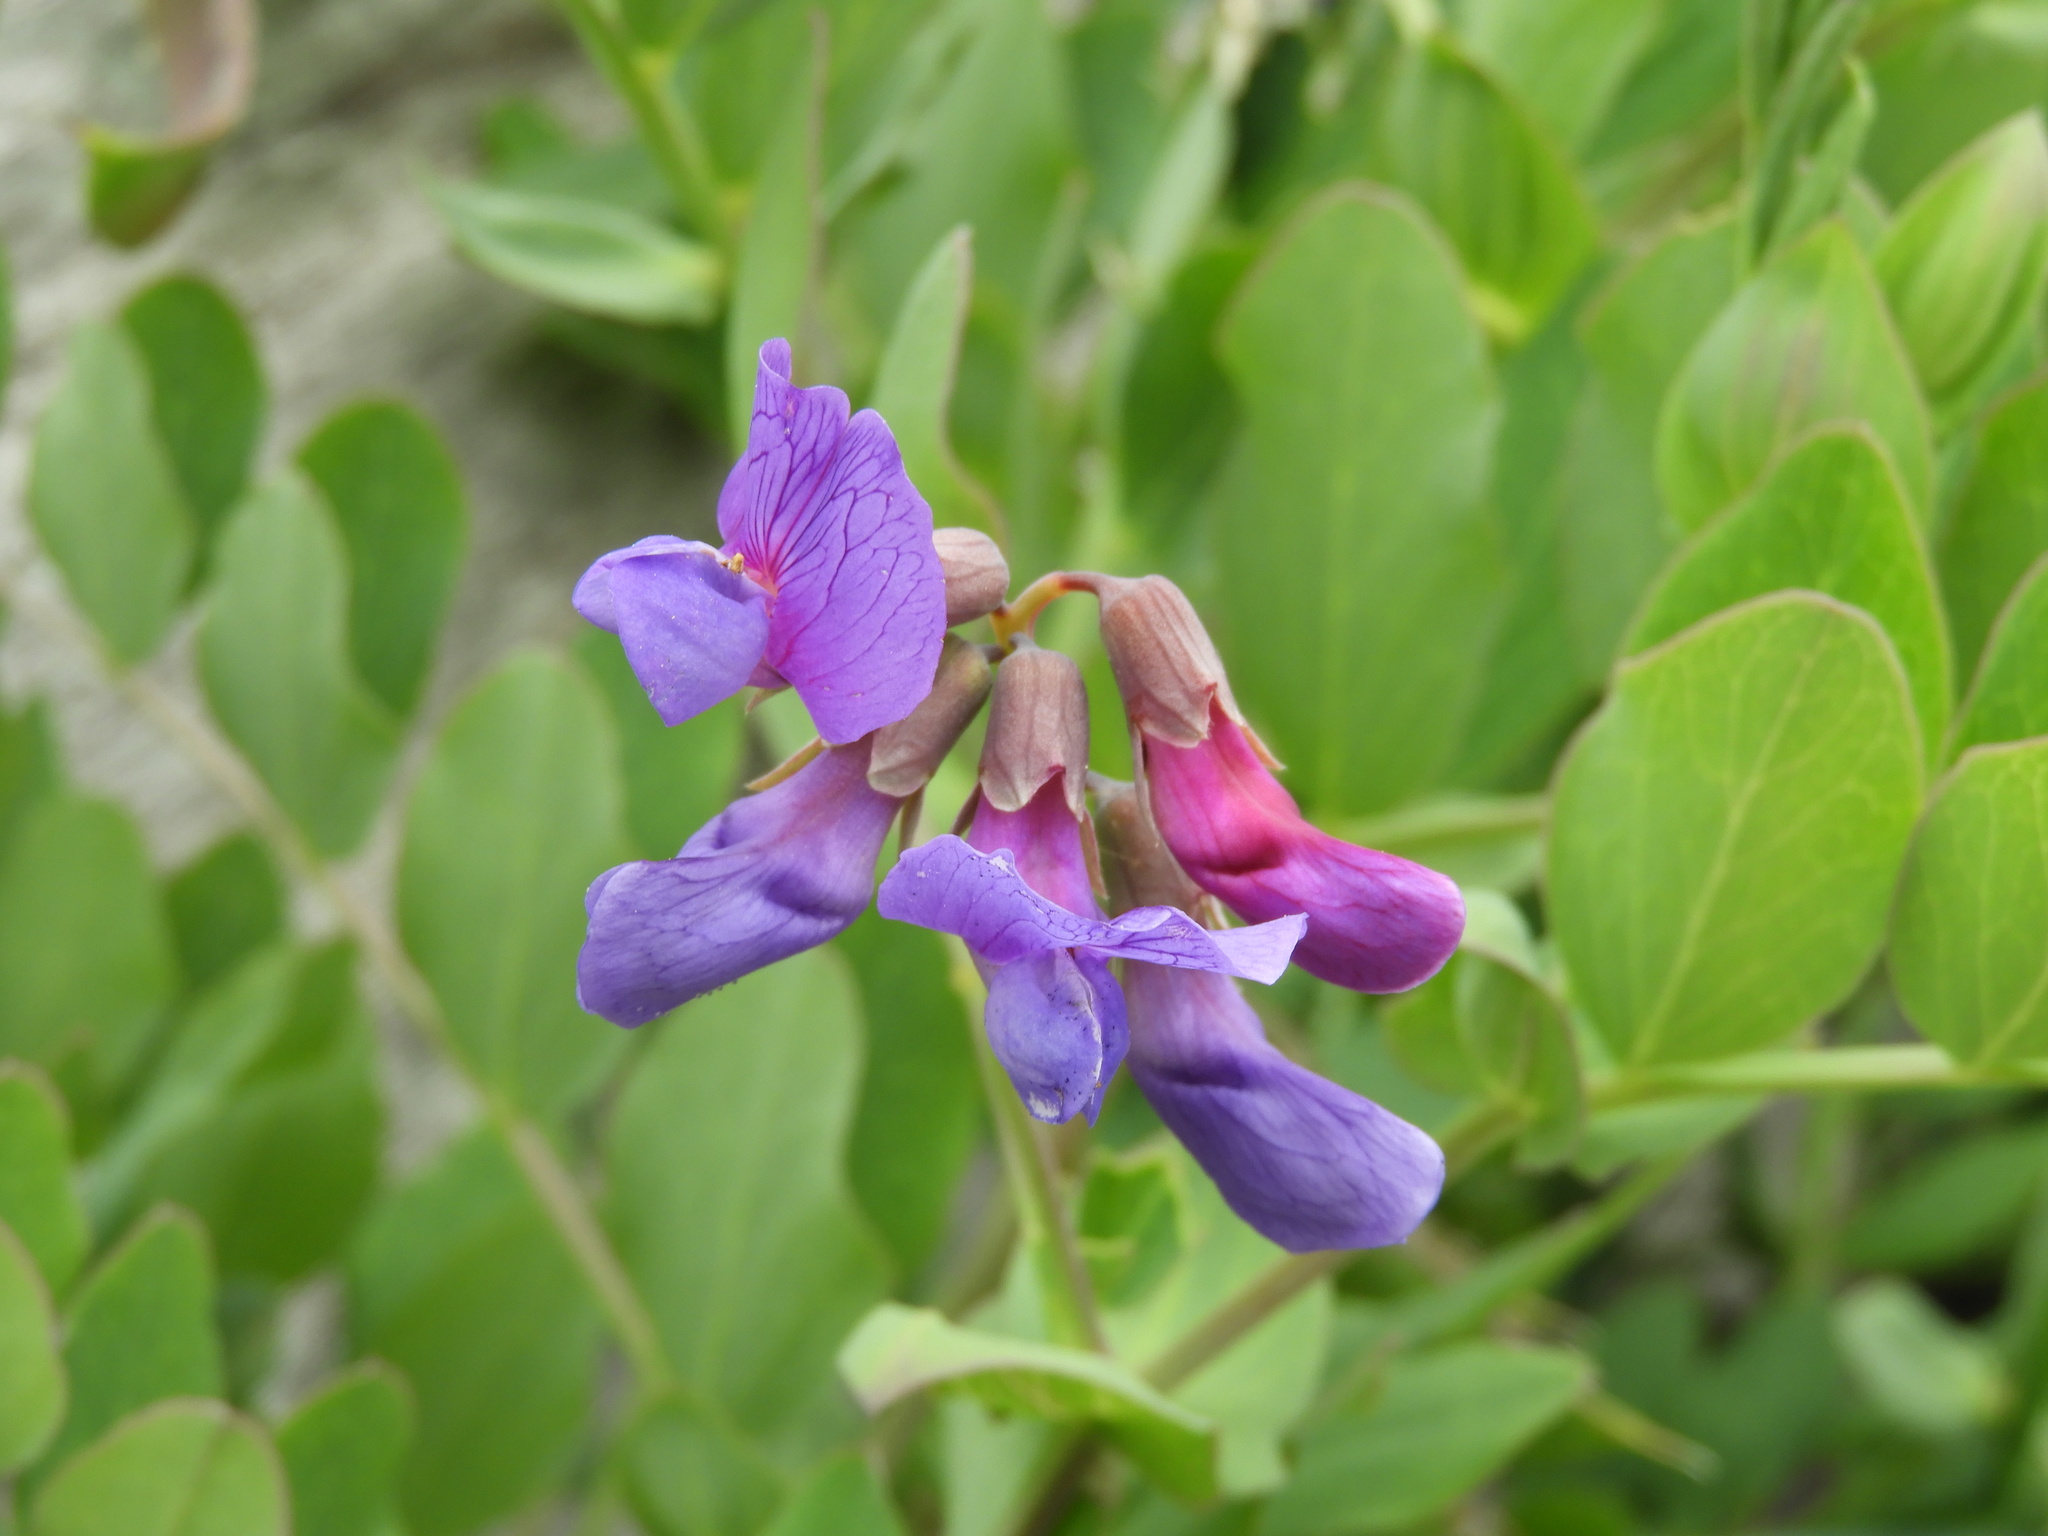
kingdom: Plantae
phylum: Tracheophyta
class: Magnoliopsida
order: Fabales
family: Fabaceae
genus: Lathyrus
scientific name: Lathyrus japonicus
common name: Sea pea
